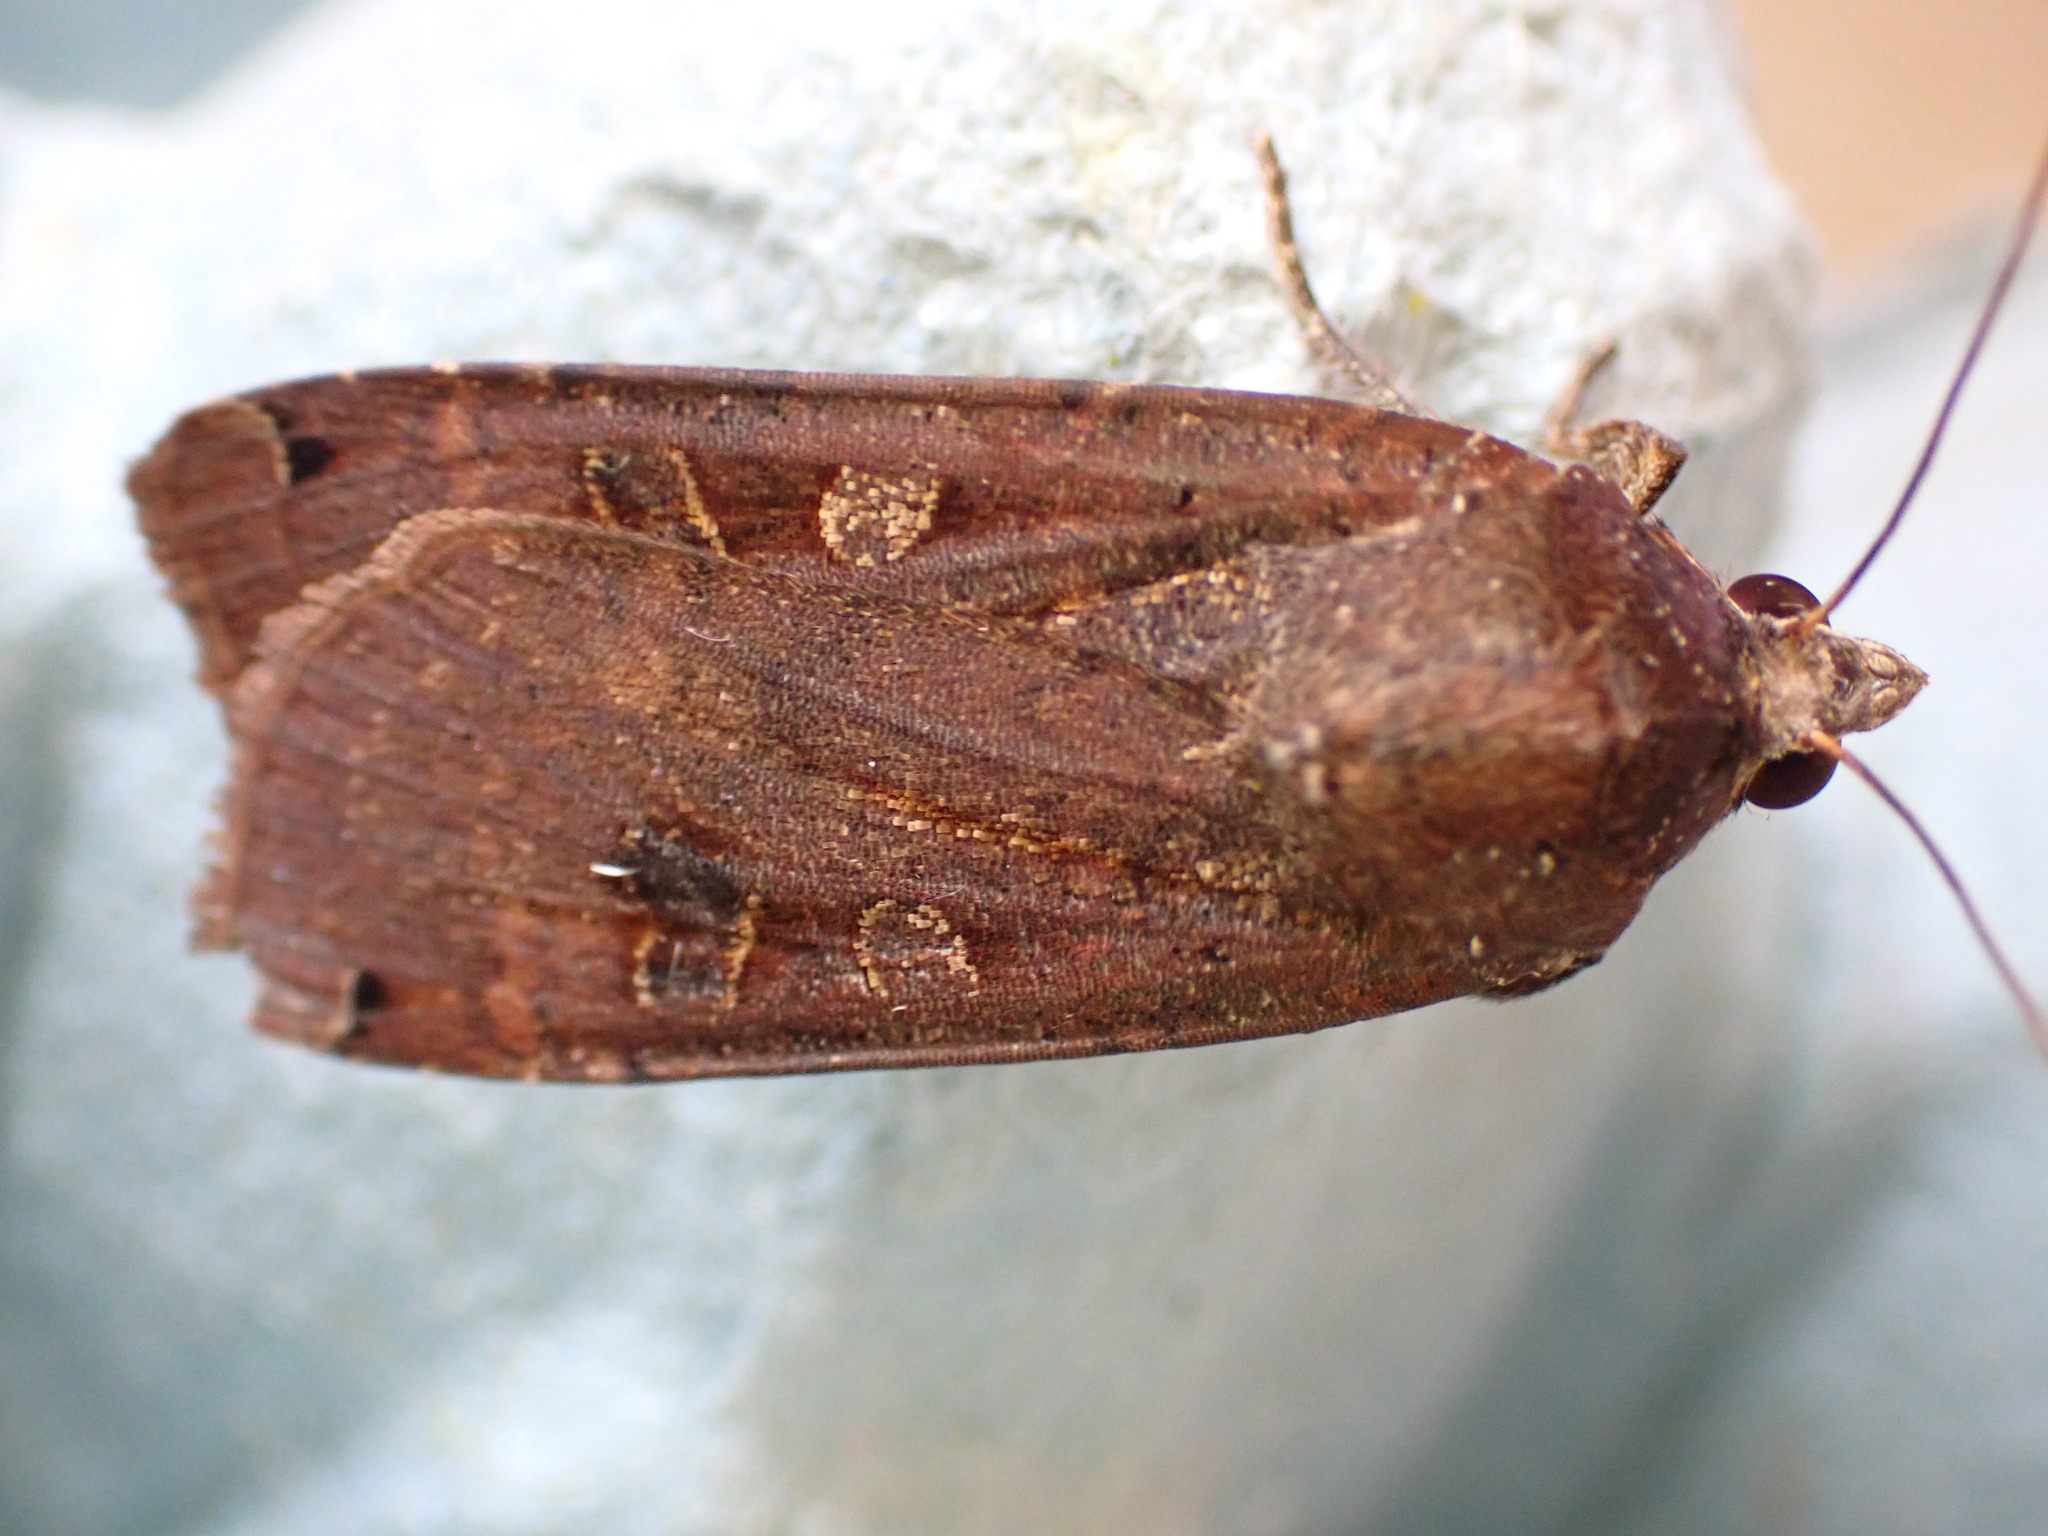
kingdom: Animalia
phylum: Arthropoda
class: Insecta
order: Lepidoptera
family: Noctuidae
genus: Noctua
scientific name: Noctua pronuba
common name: Large yellow underwing
